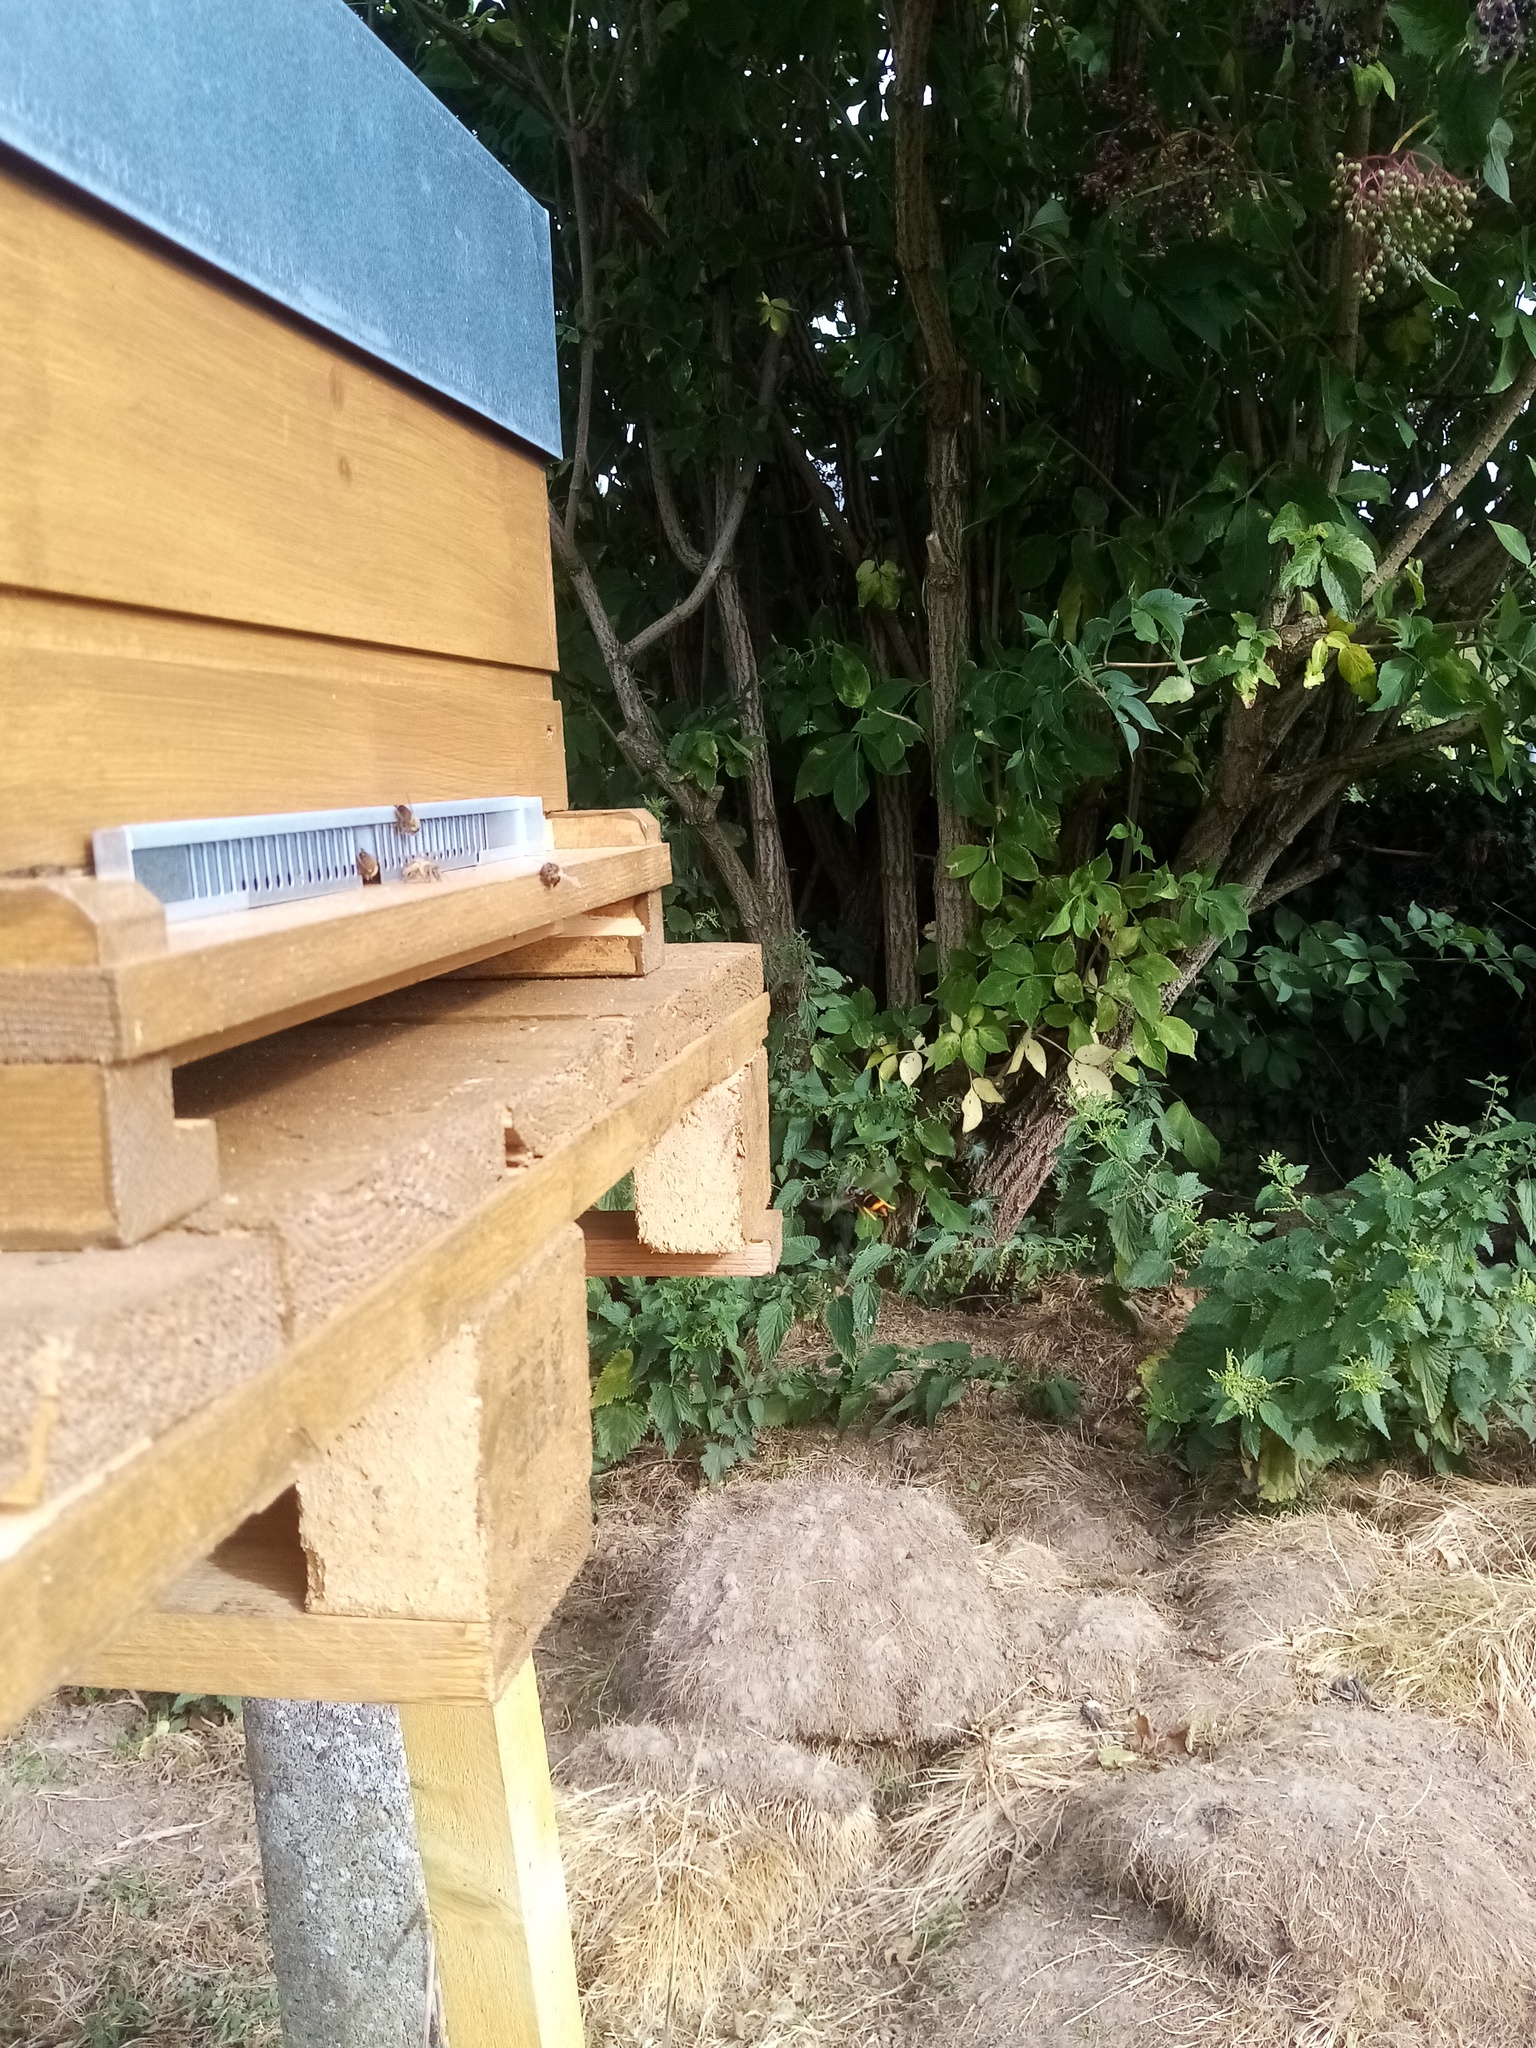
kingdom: Animalia
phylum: Arthropoda
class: Insecta
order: Hymenoptera
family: Vespidae
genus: Vespa
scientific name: Vespa velutina
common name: Asian hornet
